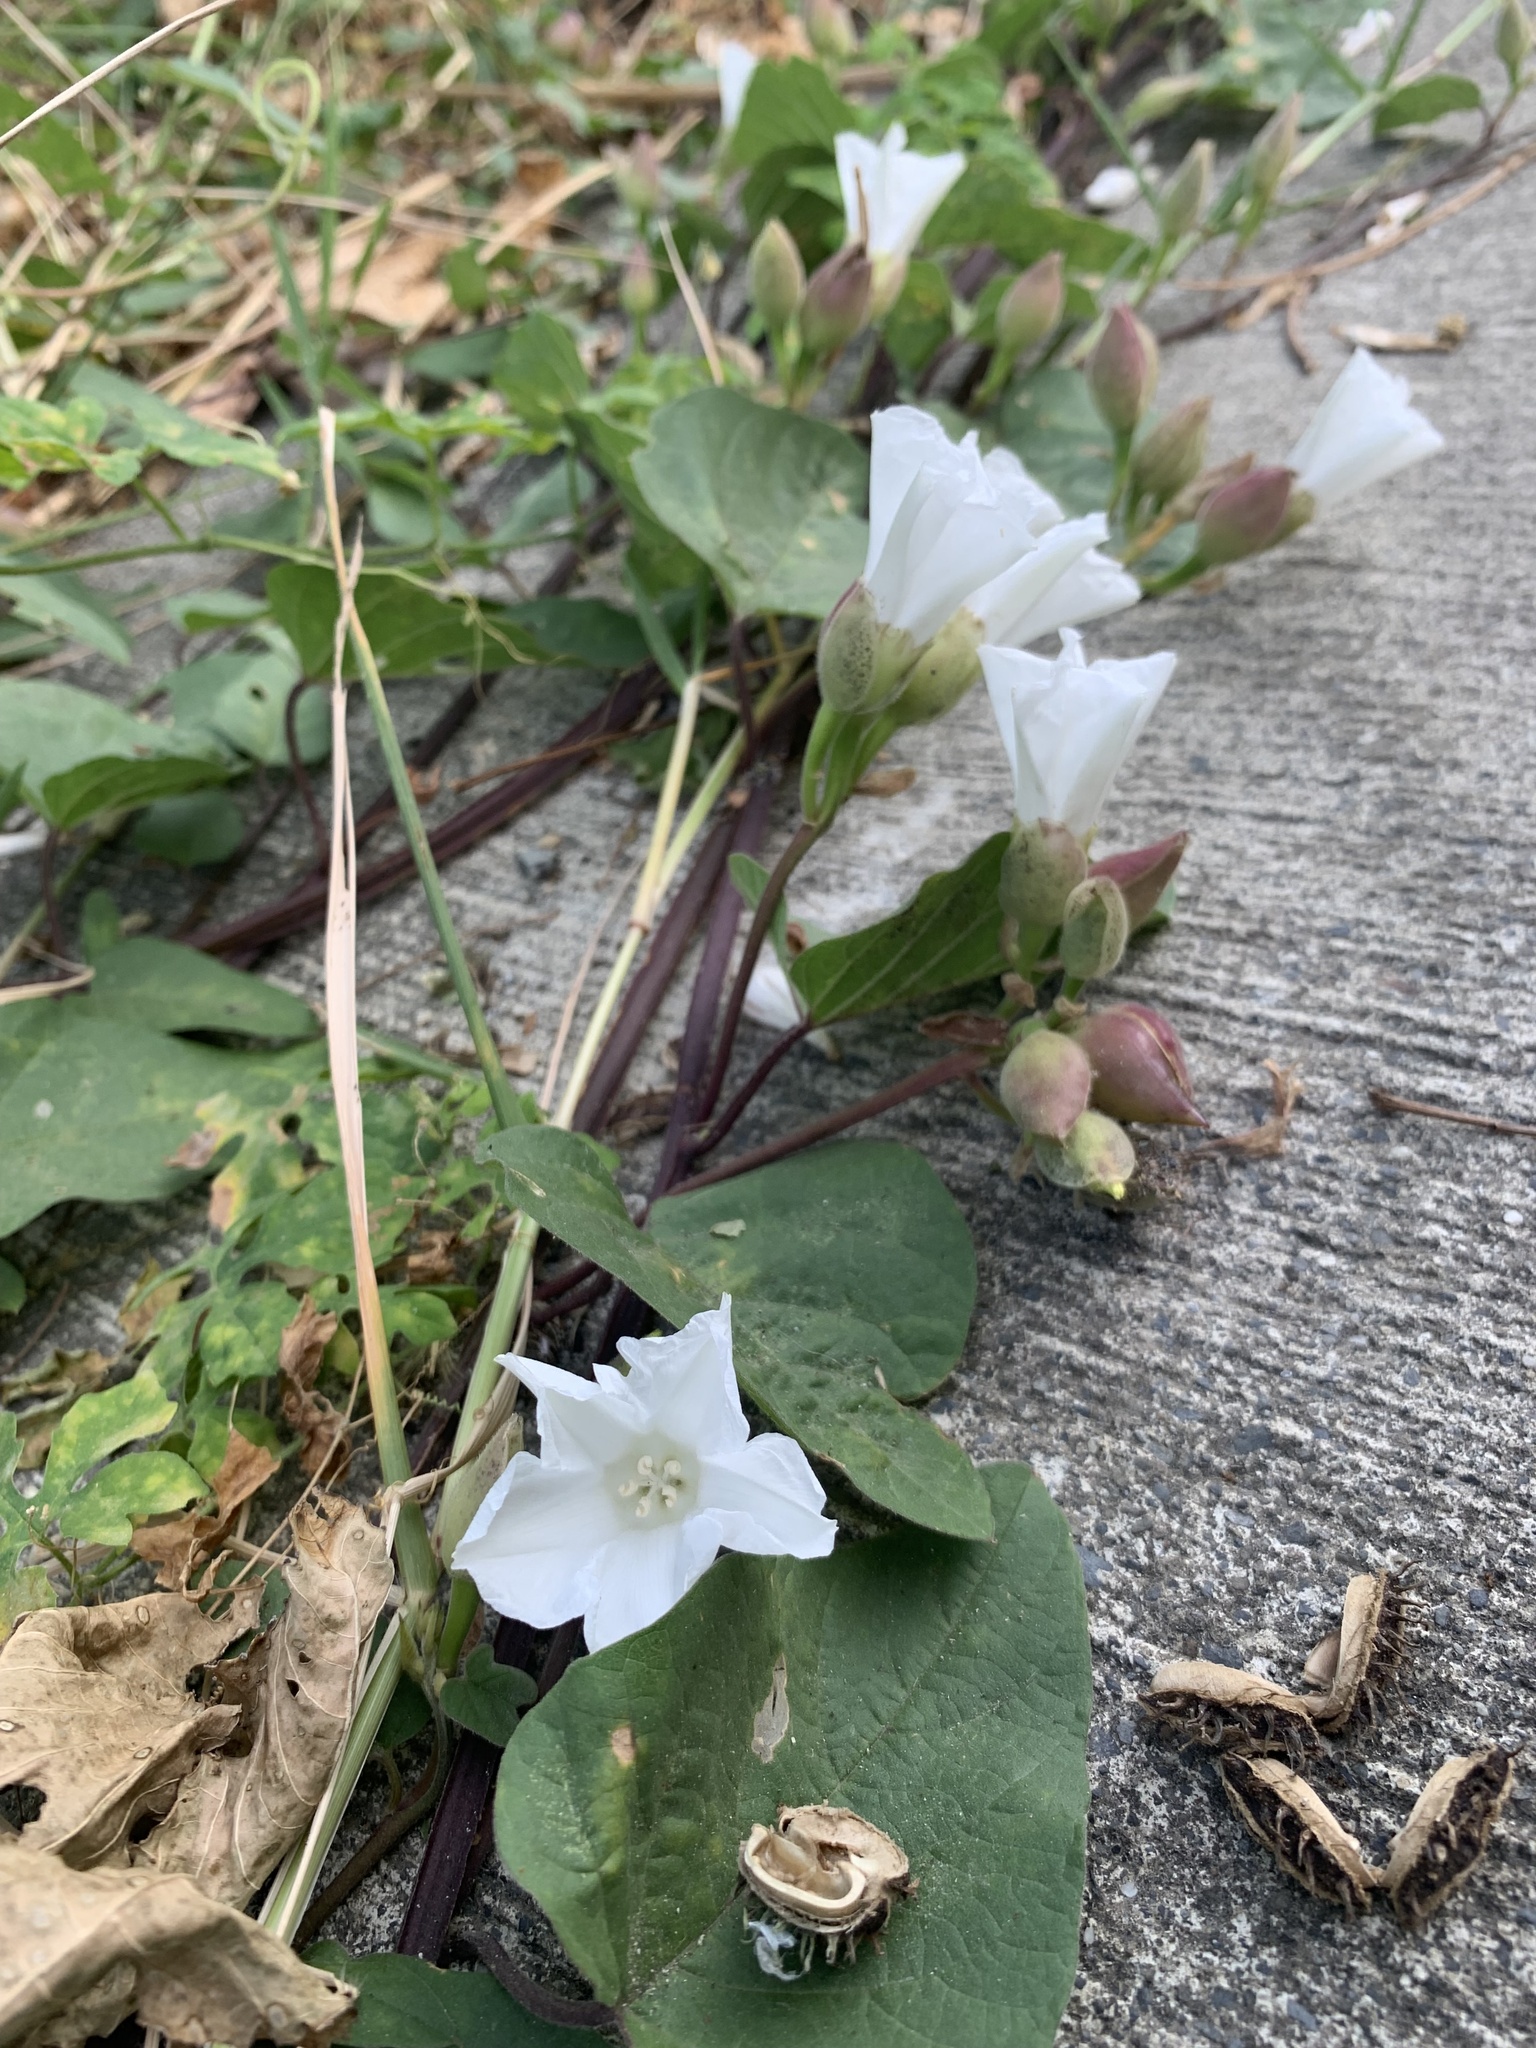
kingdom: Plantae
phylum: Tracheophyta
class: Magnoliopsida
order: Solanales
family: Convolvulaceae
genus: Operculina
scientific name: Operculina turpethum
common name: Transparent wood-rose
